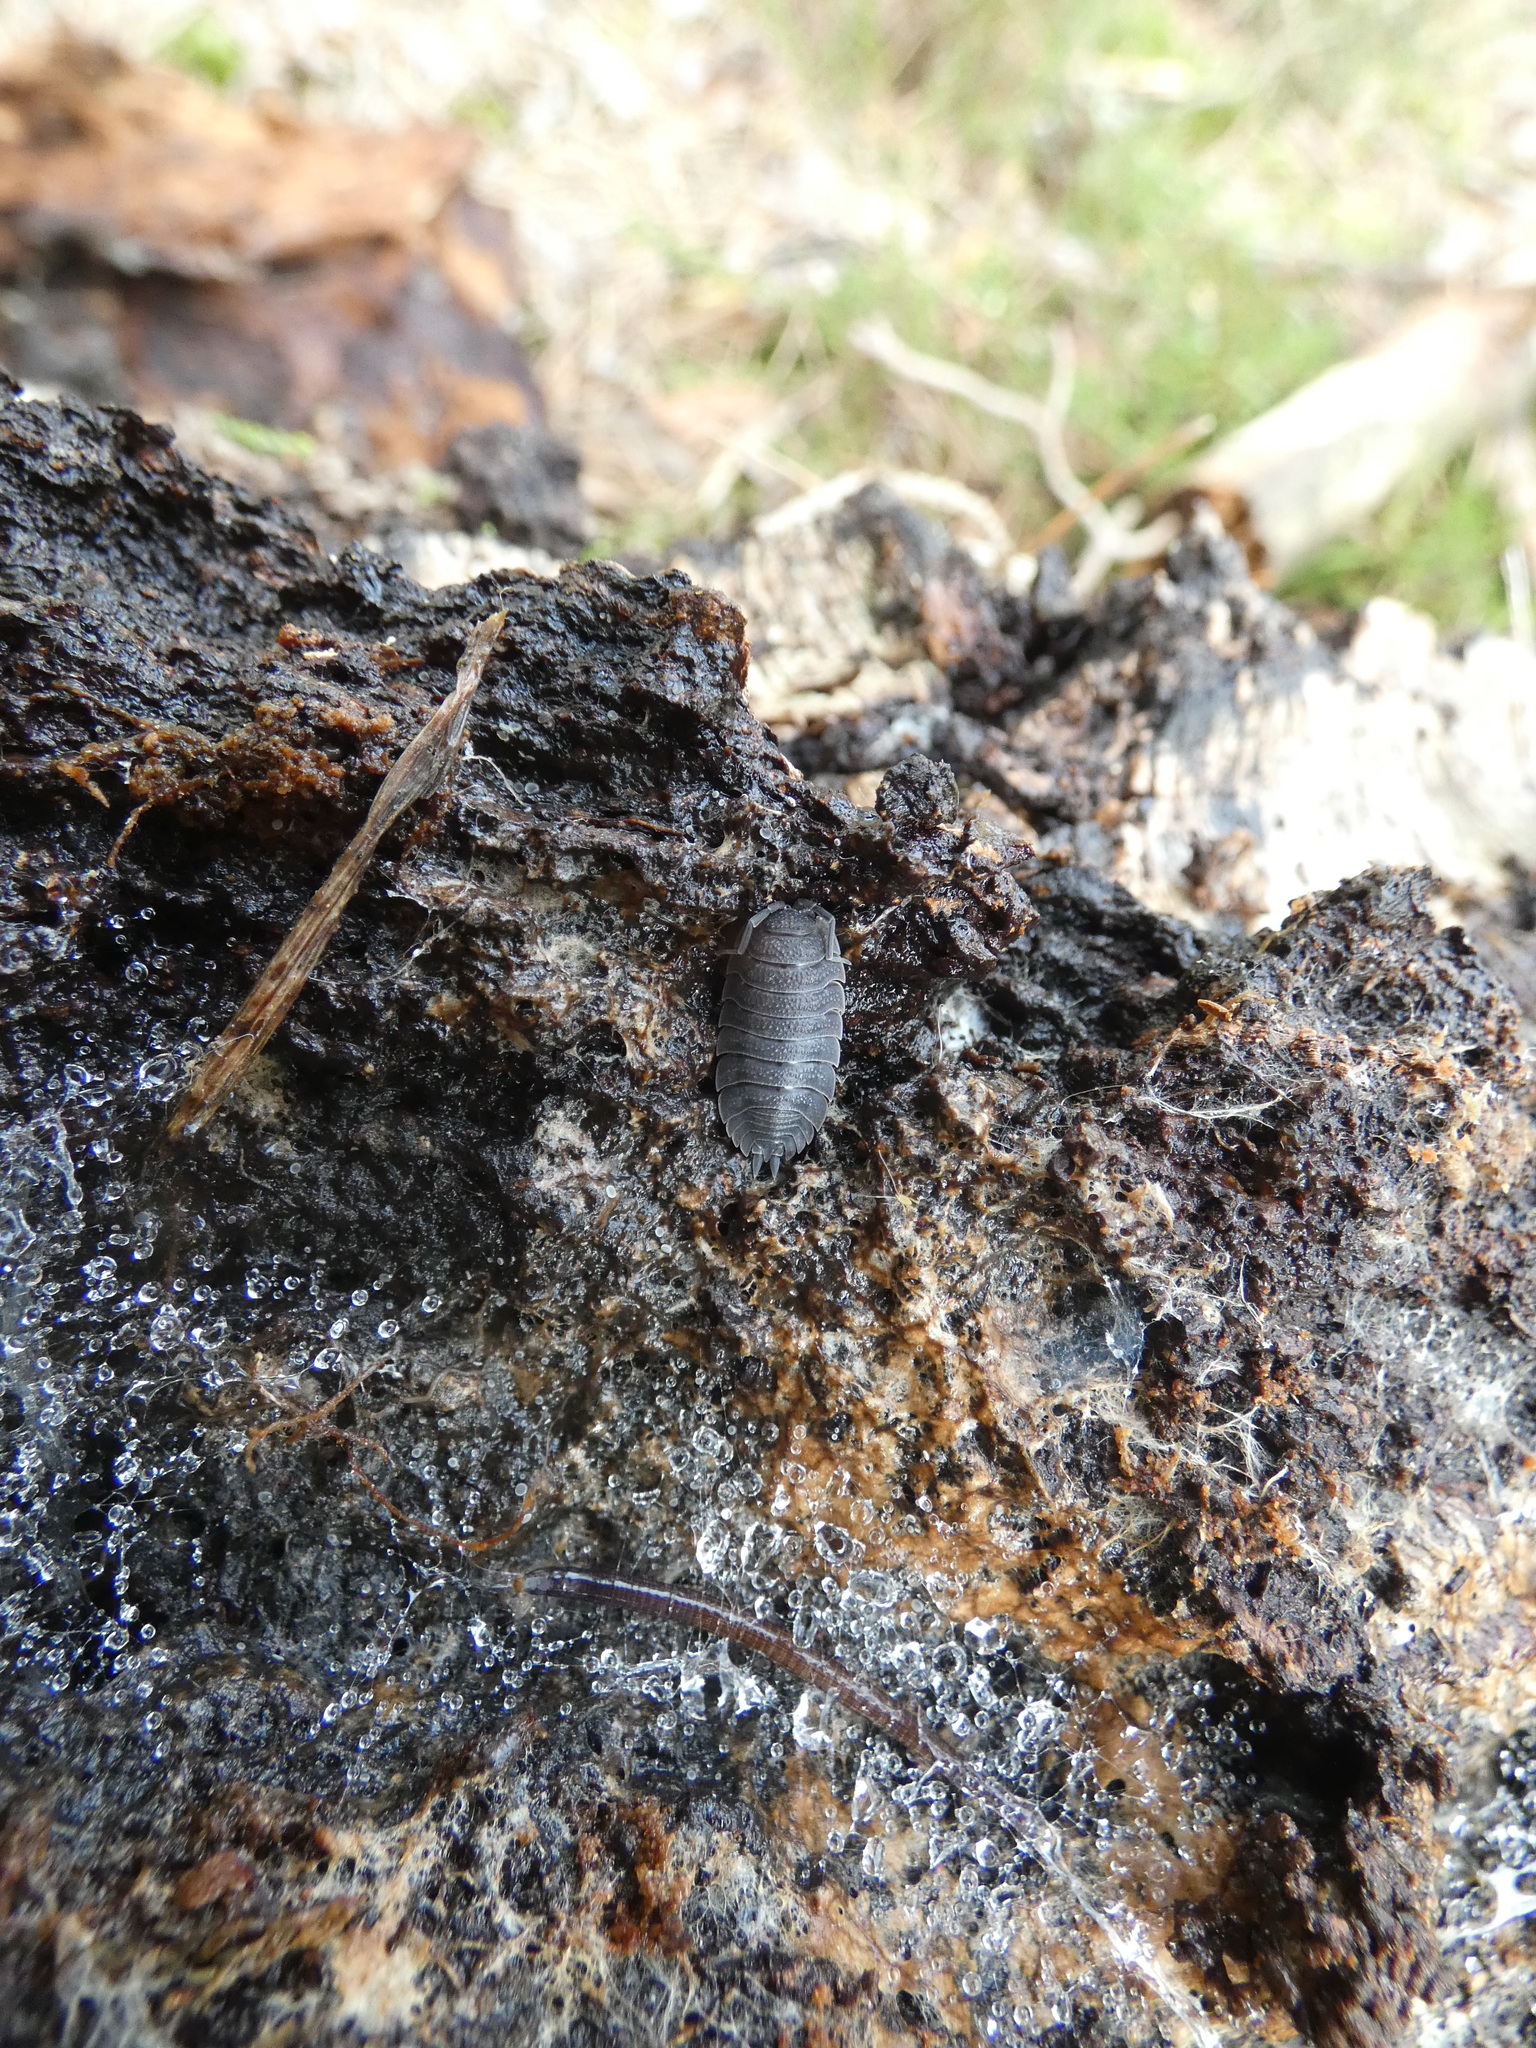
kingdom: Animalia
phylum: Arthropoda
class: Malacostraca
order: Isopoda
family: Porcellionidae
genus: Porcellio
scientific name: Porcellio scaber
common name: Common rough woodlouse
